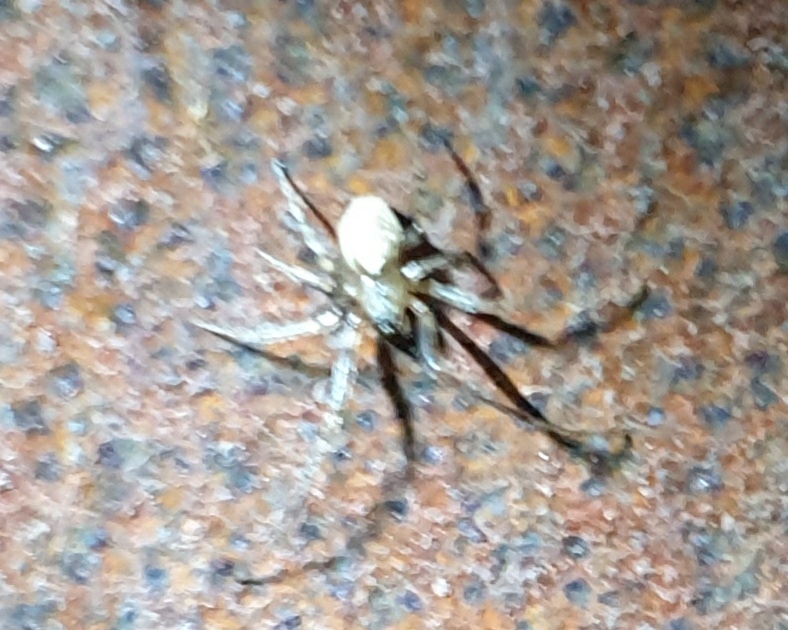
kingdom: Animalia
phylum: Arthropoda
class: Arachnida
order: Araneae
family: Araneidae
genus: Zygiella
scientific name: Zygiella x-notata
